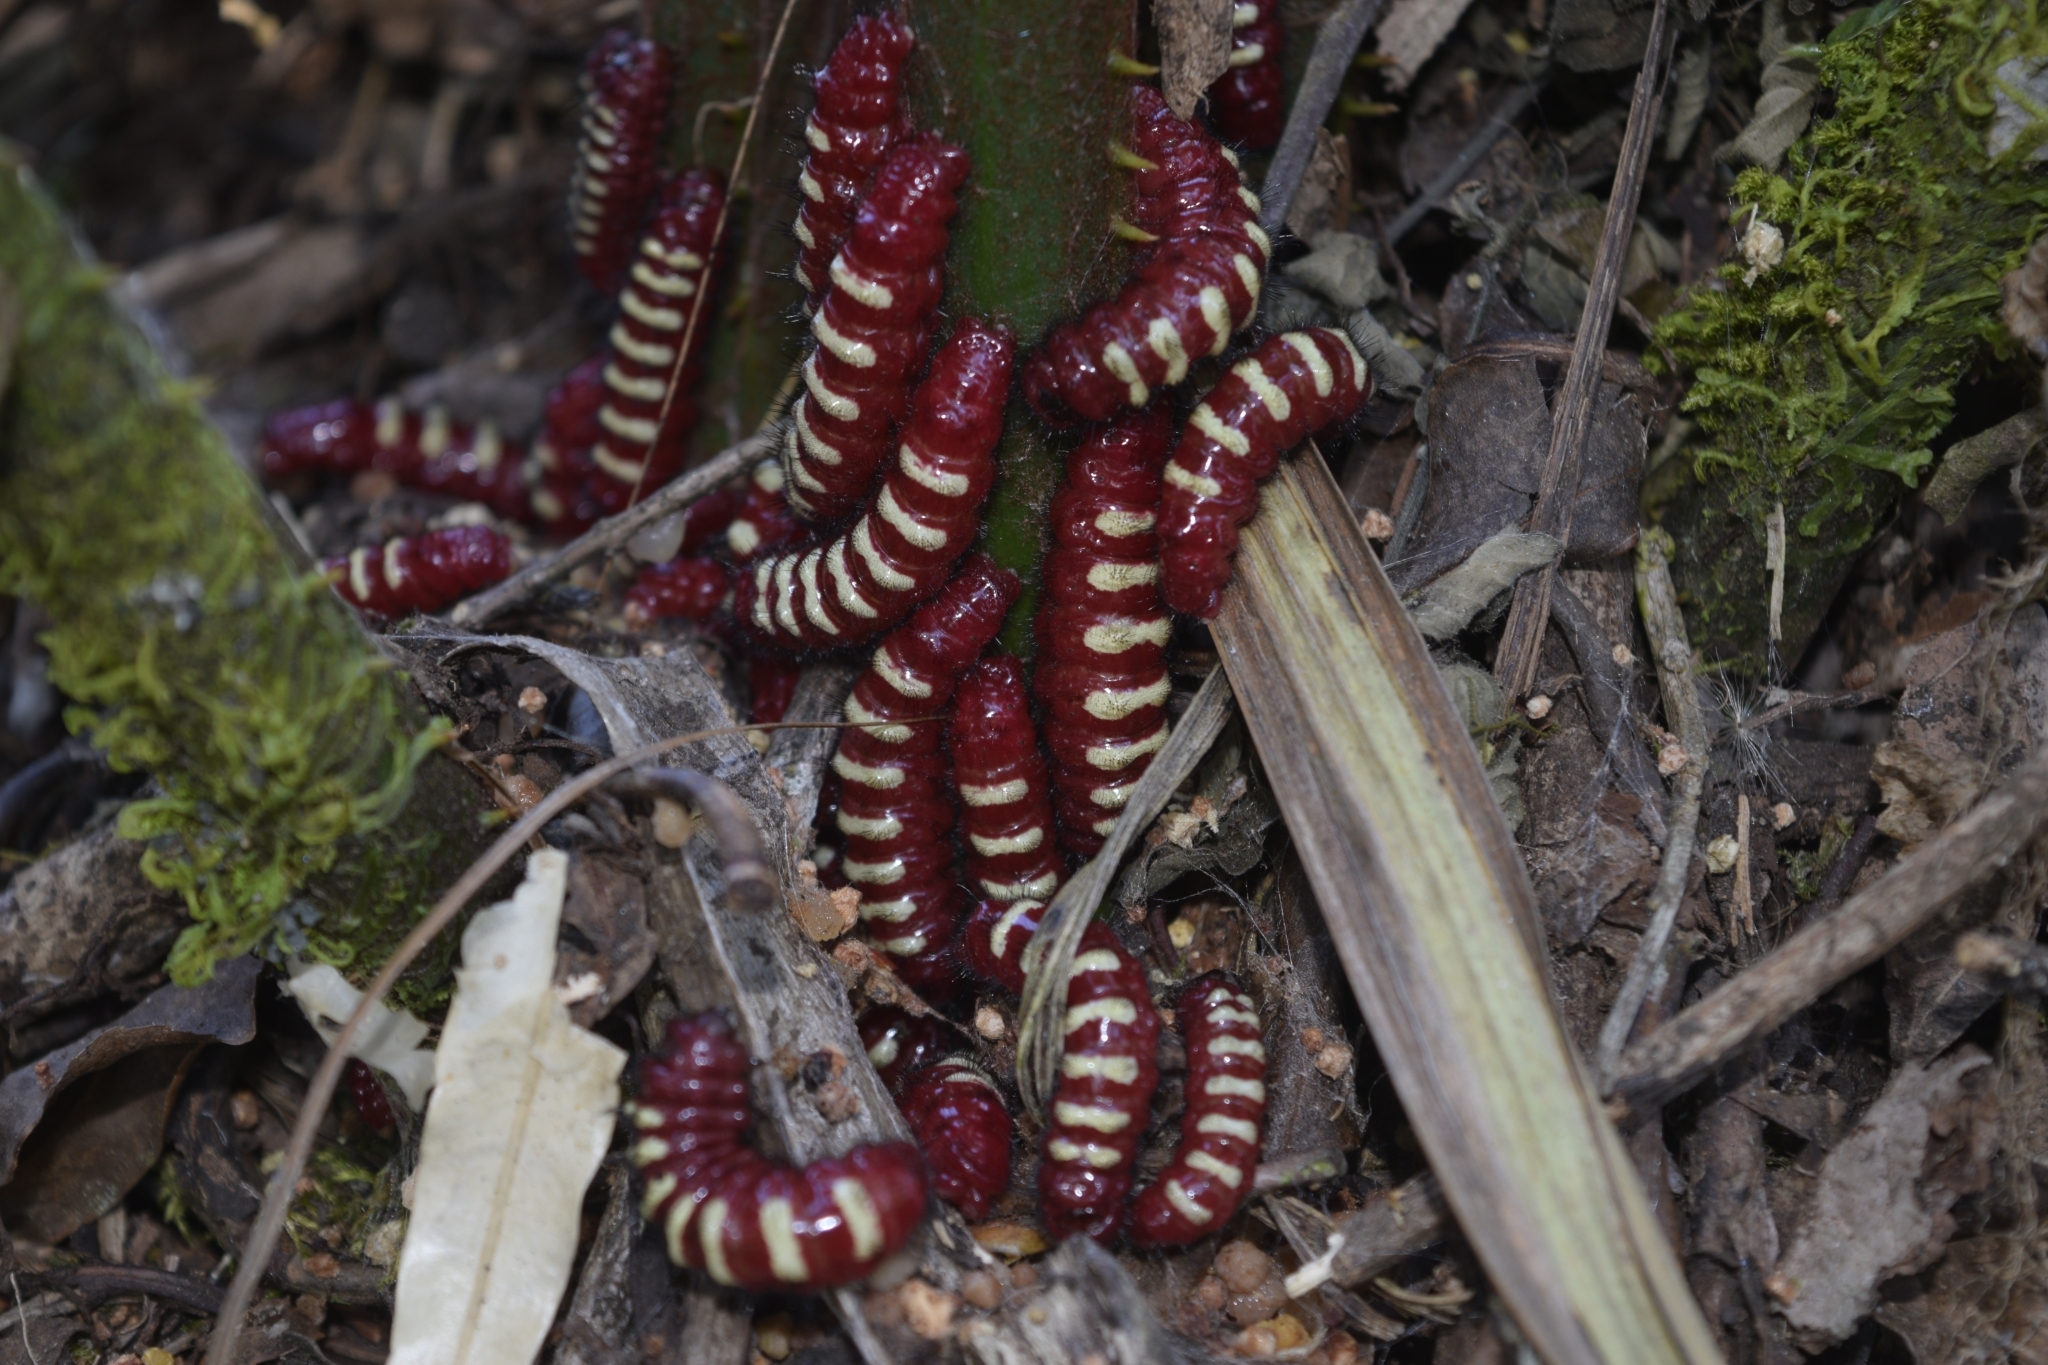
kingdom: Animalia
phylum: Arthropoda
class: Insecta
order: Lepidoptera
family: Lycaenidae
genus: Eumaeus
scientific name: Eumaeus godartii
